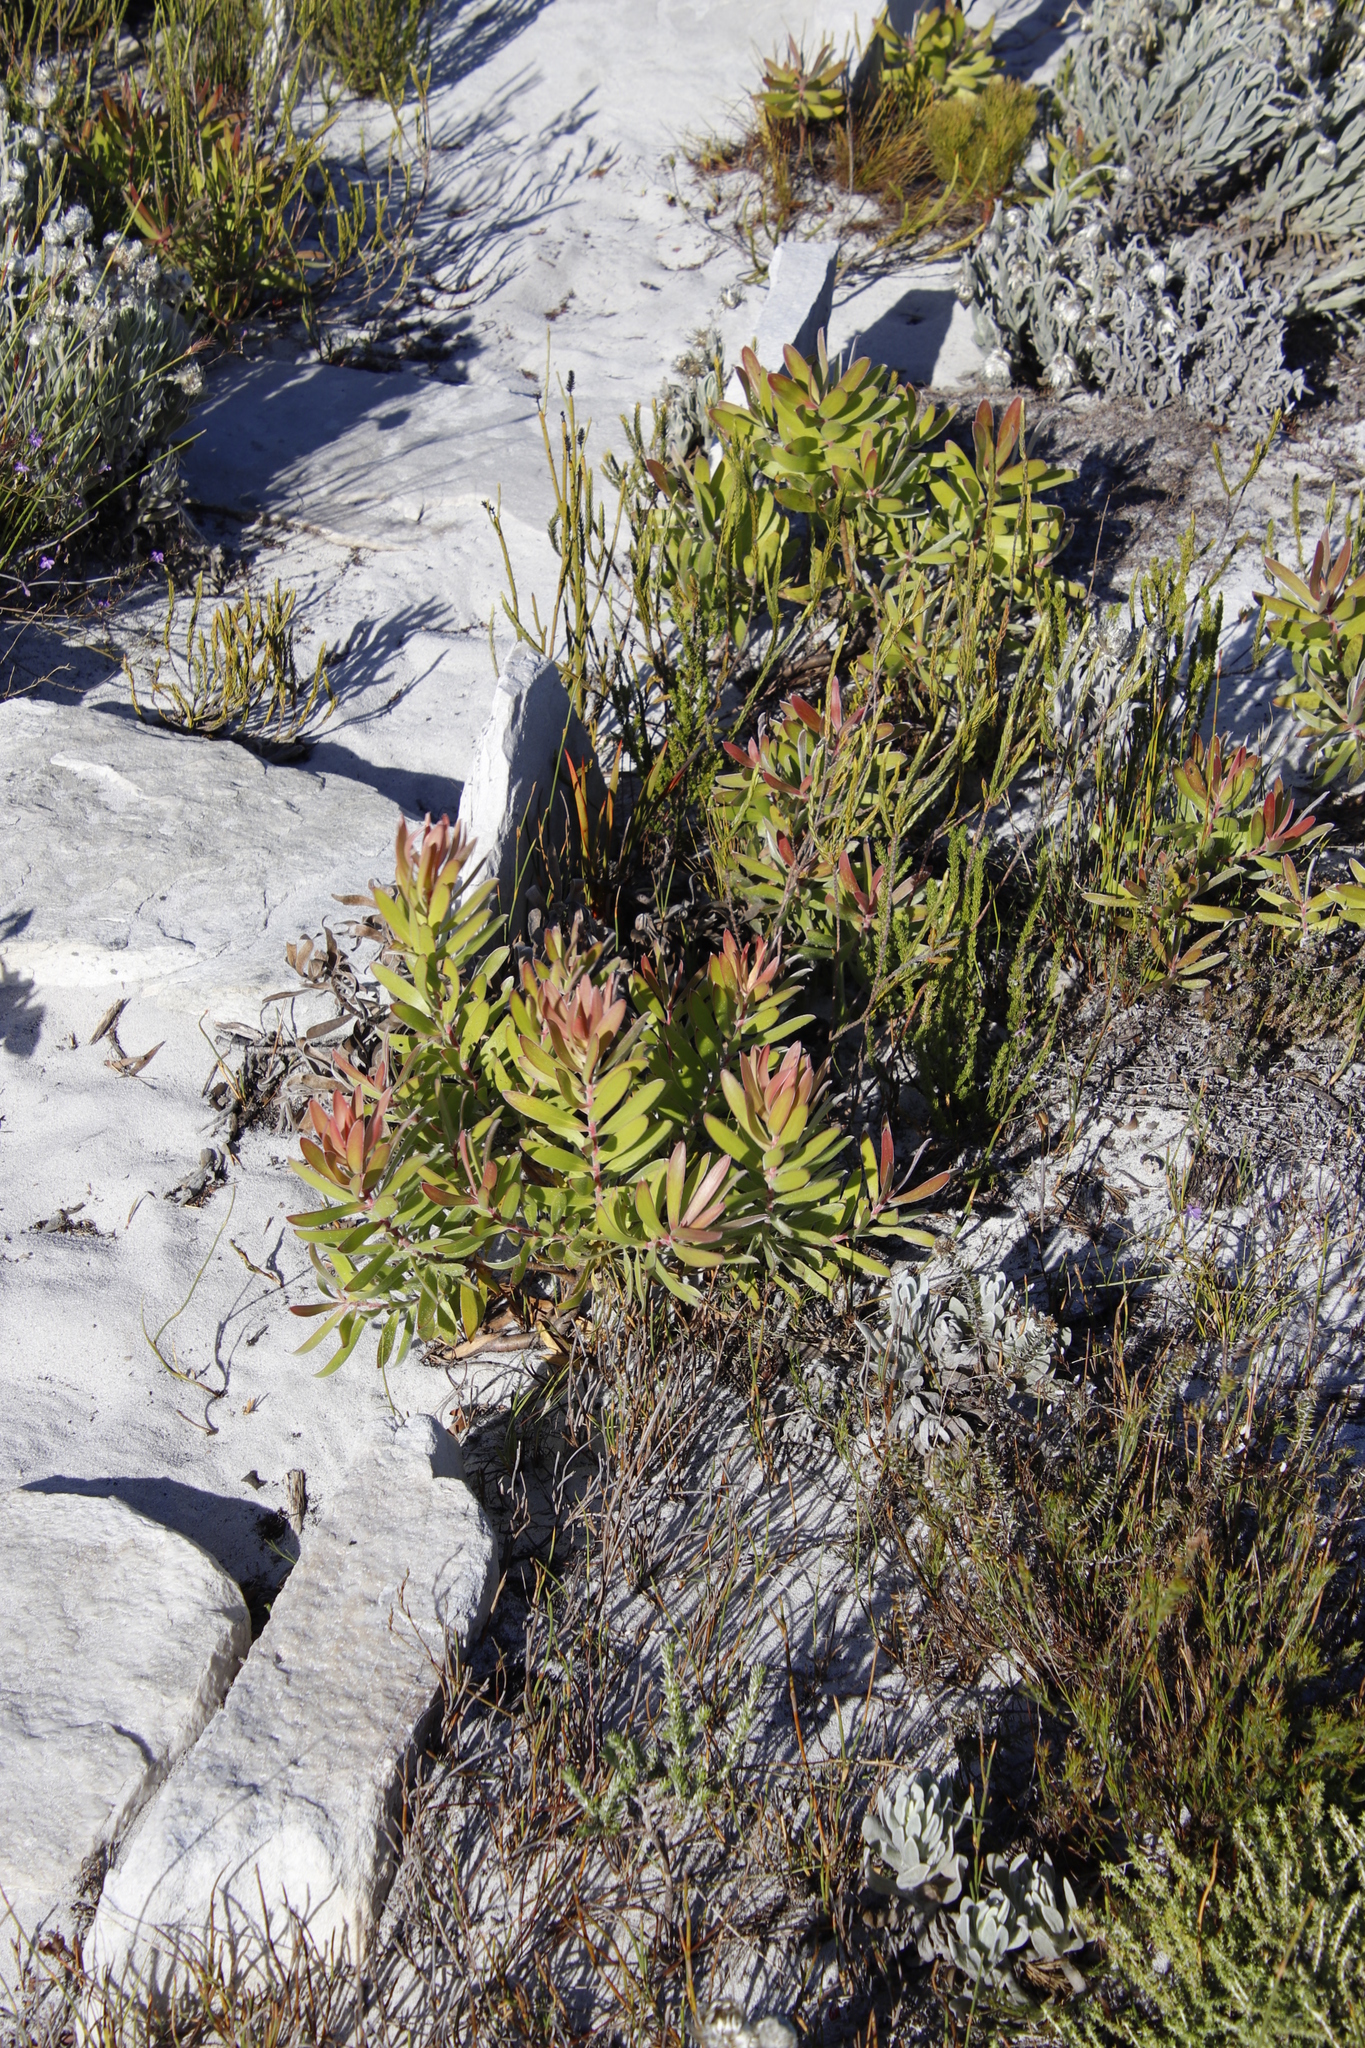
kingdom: Plantae
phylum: Tracheophyta
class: Magnoliopsida
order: Proteales
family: Proteaceae
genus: Leucadendron
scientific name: Leucadendron laureolum
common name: Golden sunshinebush
